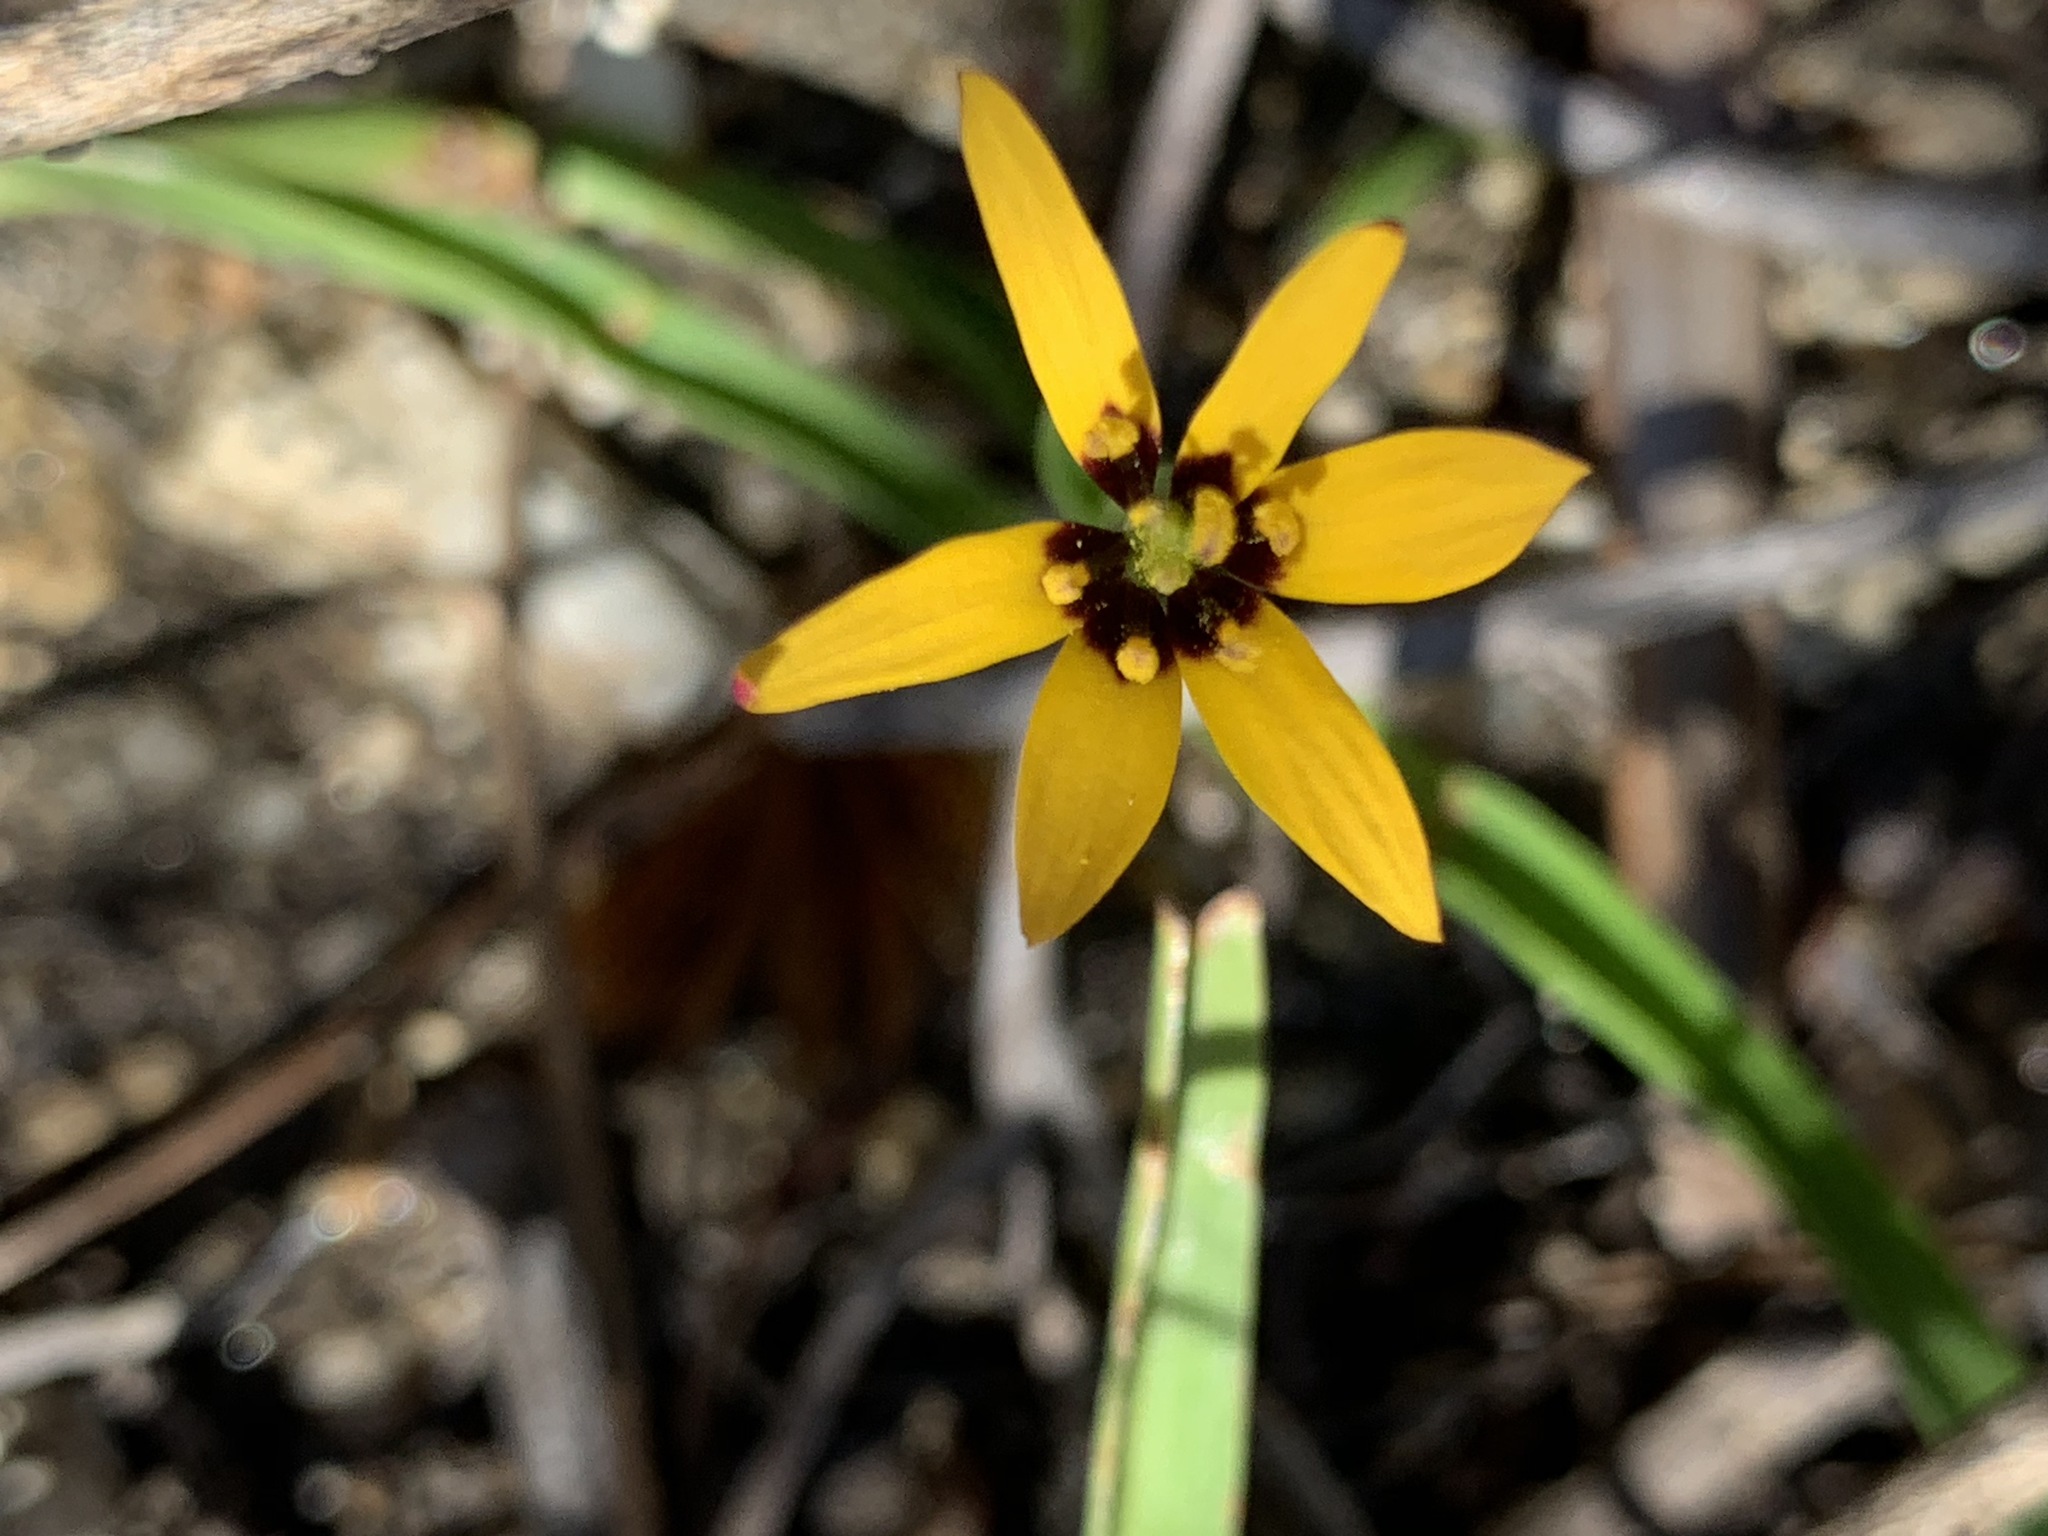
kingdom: Plantae
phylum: Tracheophyta
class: Liliopsida
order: Liliales
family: Colchicaceae
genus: Baeometra
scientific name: Baeometra uniflora
